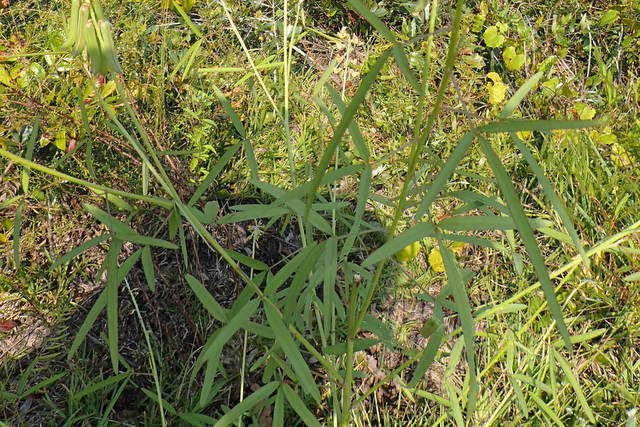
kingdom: Plantae
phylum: Tracheophyta
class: Magnoliopsida
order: Fabales
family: Fabaceae
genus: Crotalaria
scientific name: Crotalaria lanceolata
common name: Lanceleaf rattlebox
